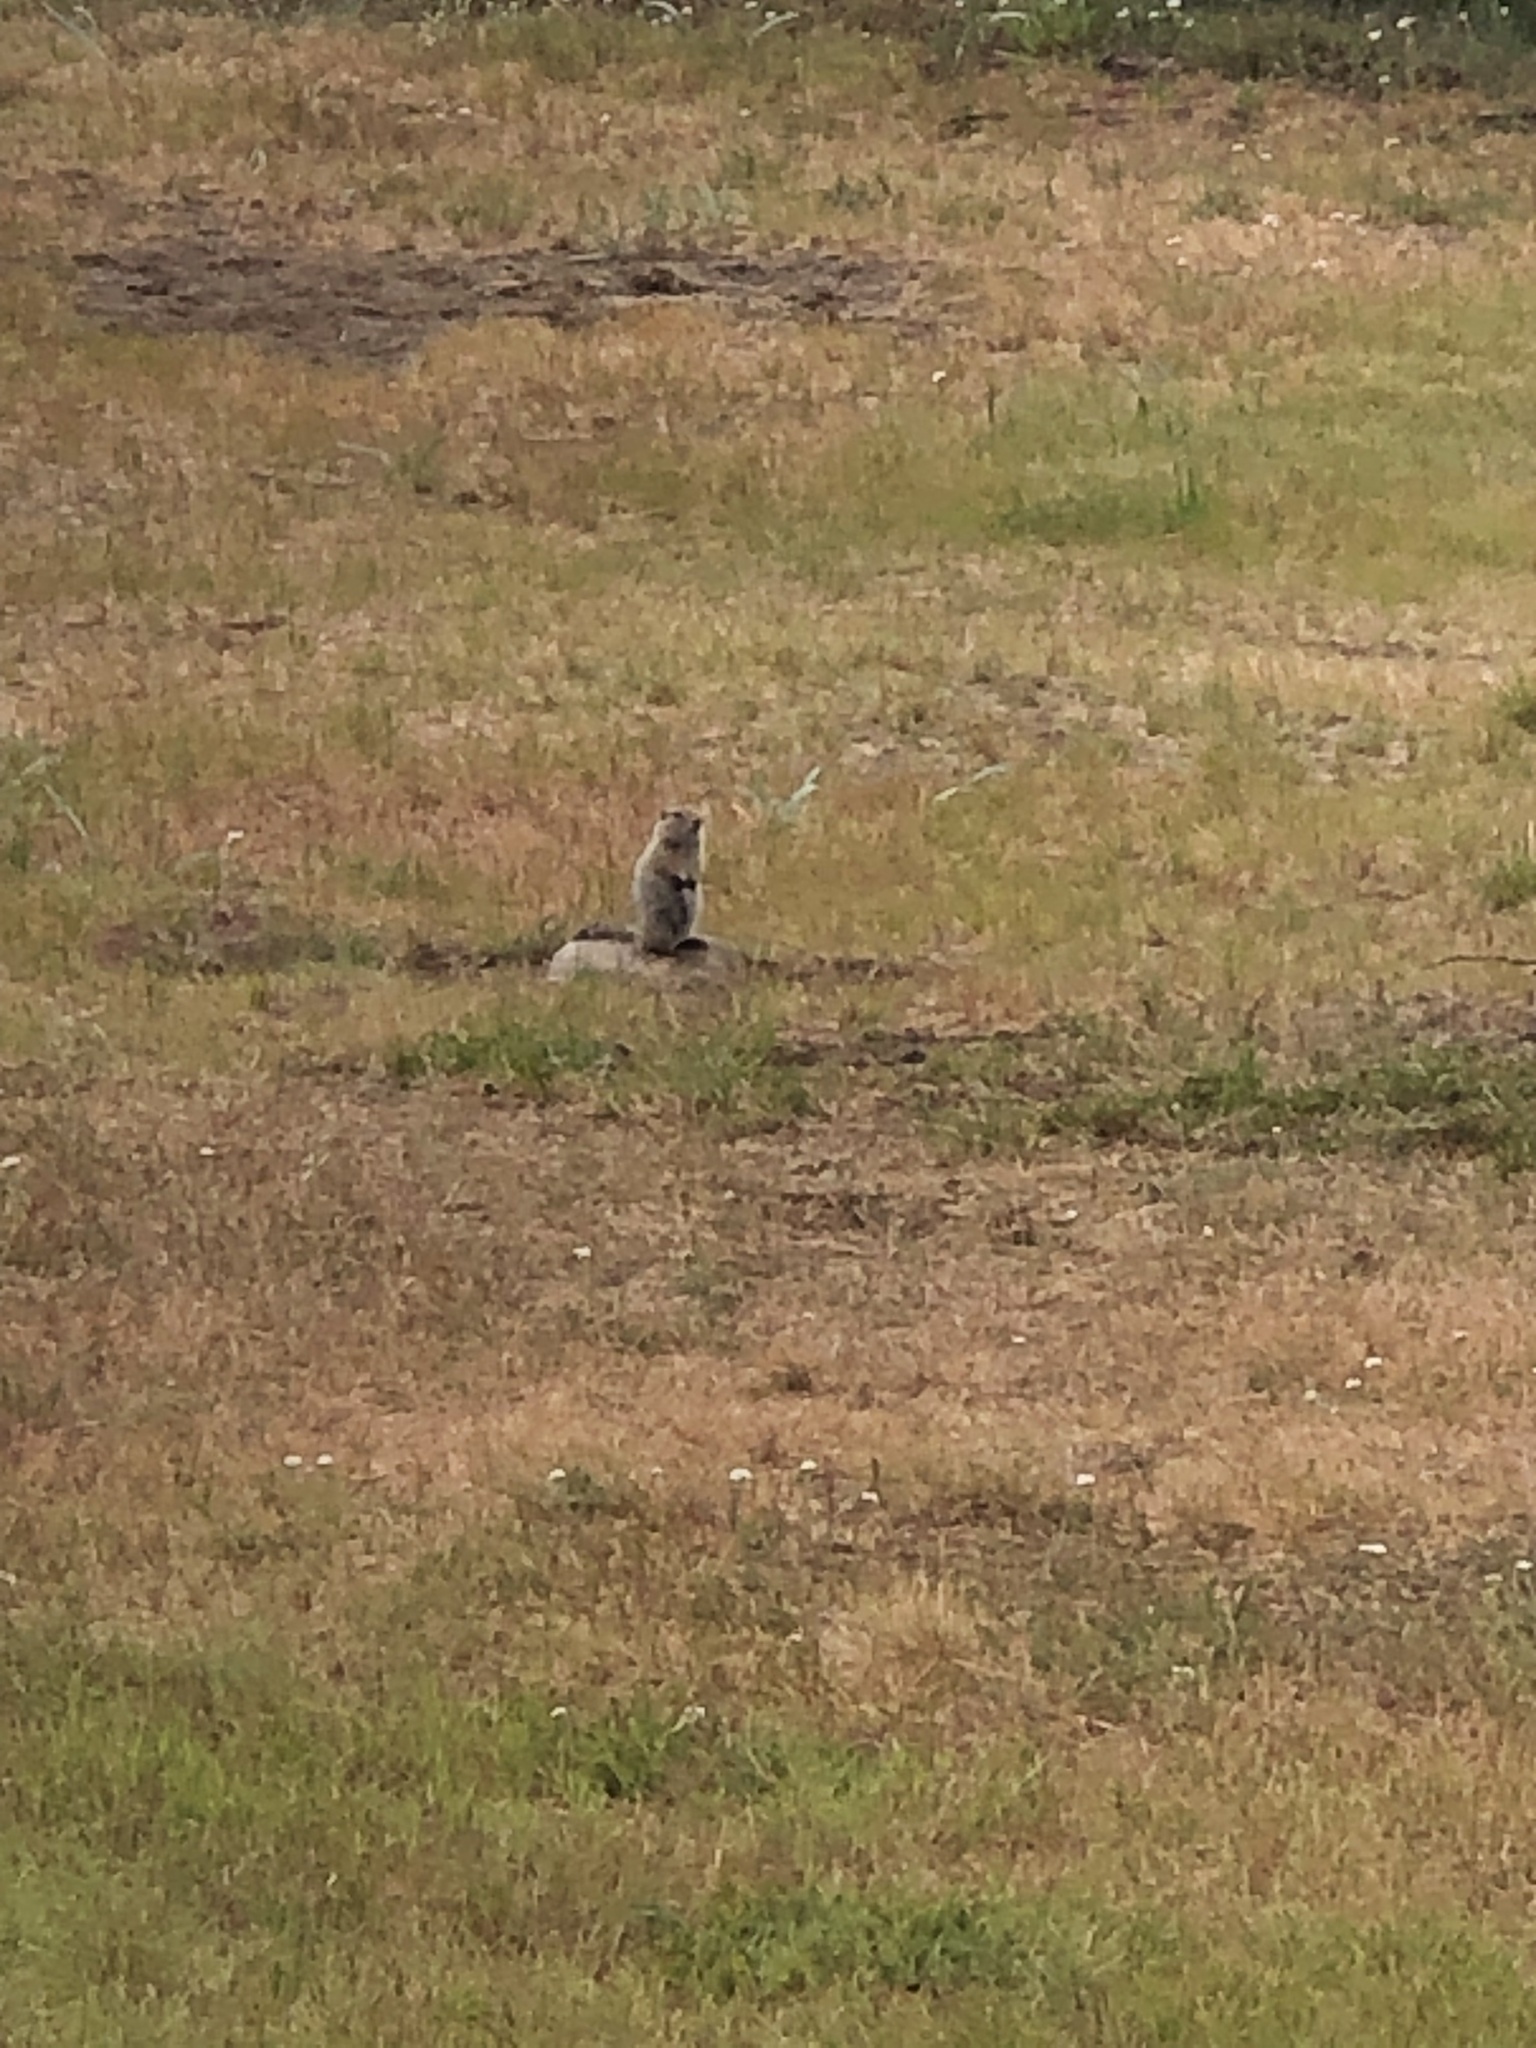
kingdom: Animalia
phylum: Chordata
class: Mammalia
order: Rodentia
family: Sciuridae
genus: Urocitellus
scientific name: Urocitellus parryii
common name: Arctic ground squirrel
